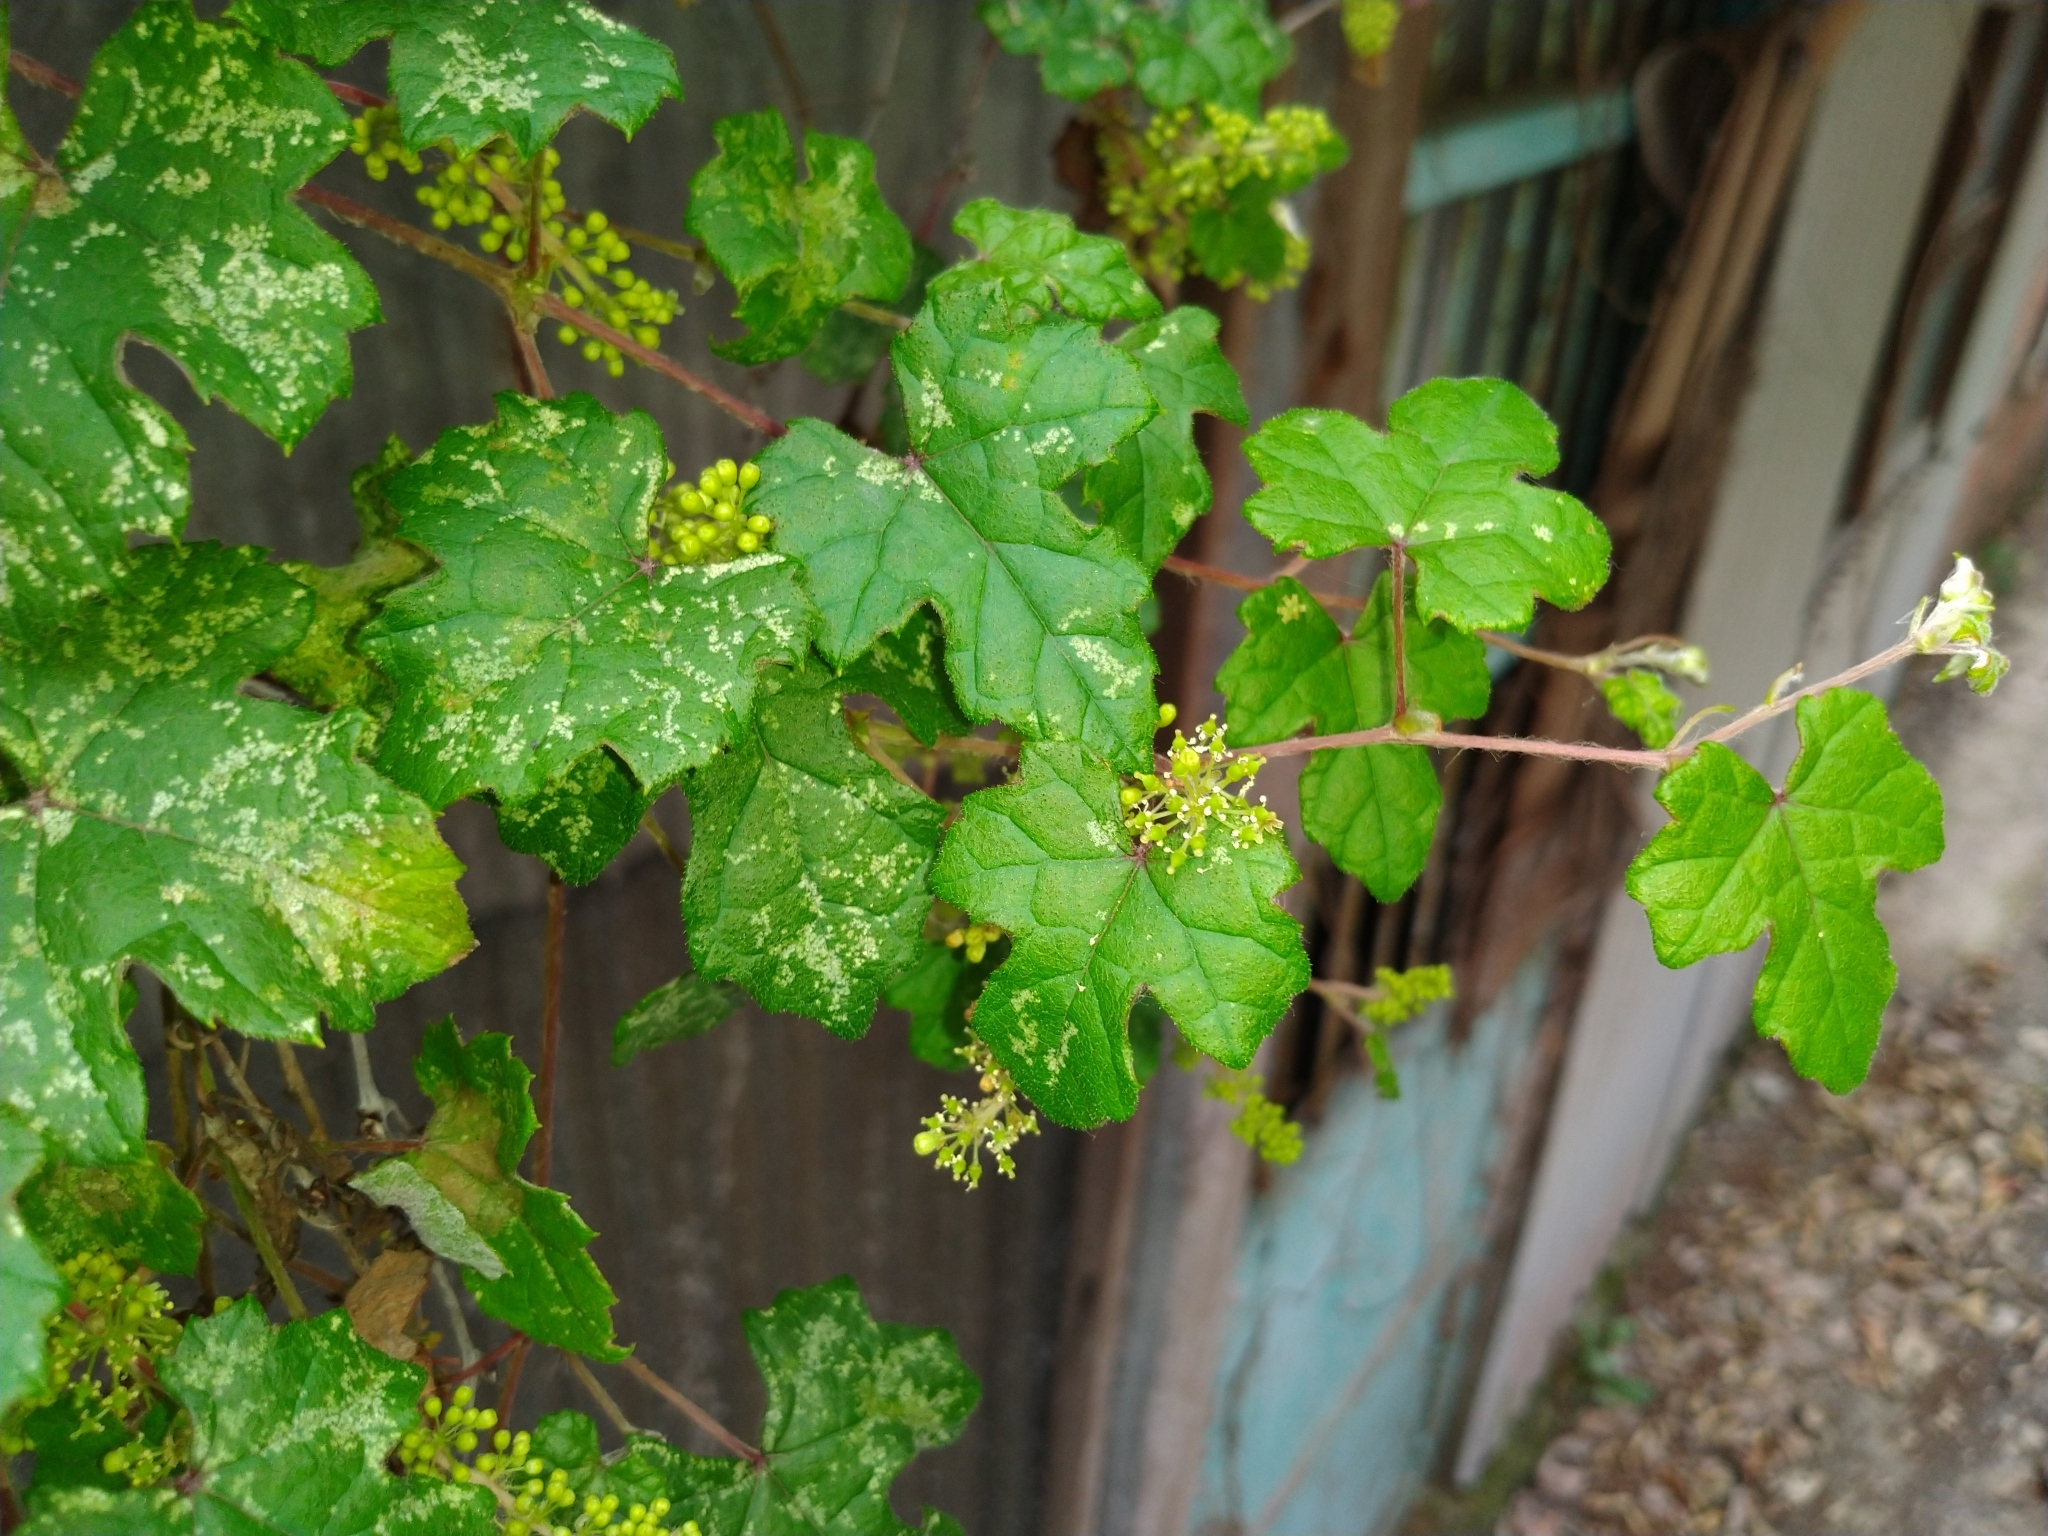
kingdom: Plantae
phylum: Tracheophyta
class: Magnoliopsida
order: Vitales
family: Vitaceae
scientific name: Vitaceae
